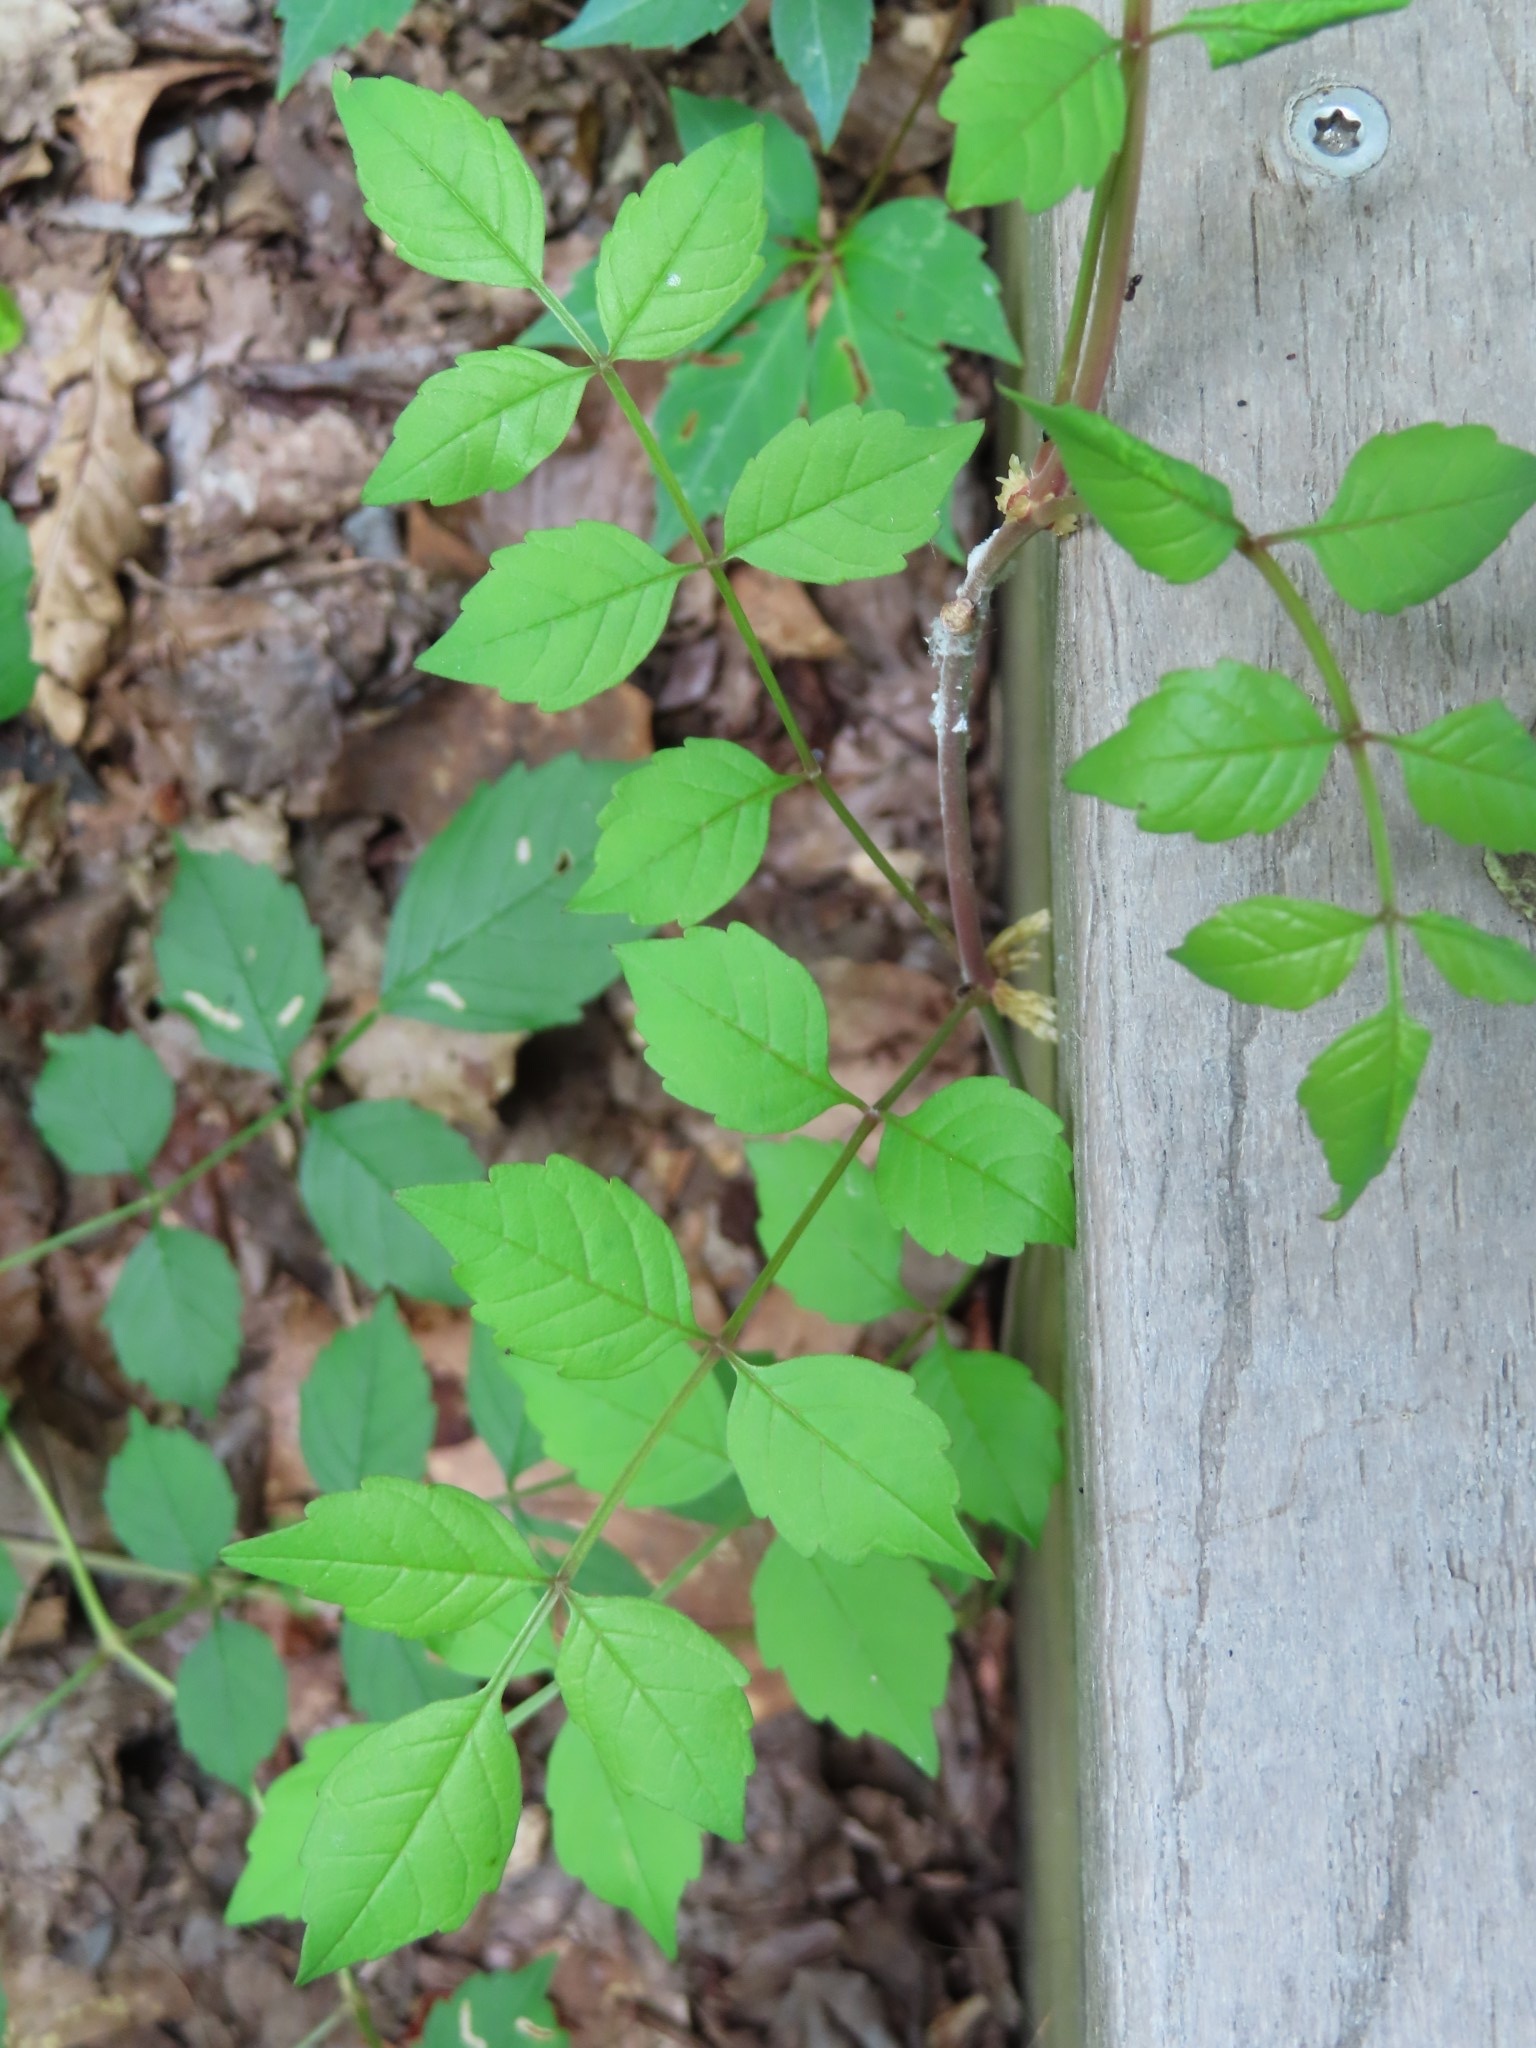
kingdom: Plantae
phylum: Tracheophyta
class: Magnoliopsida
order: Lamiales
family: Bignoniaceae
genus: Campsis
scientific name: Campsis radicans
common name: Trumpet-creeper
